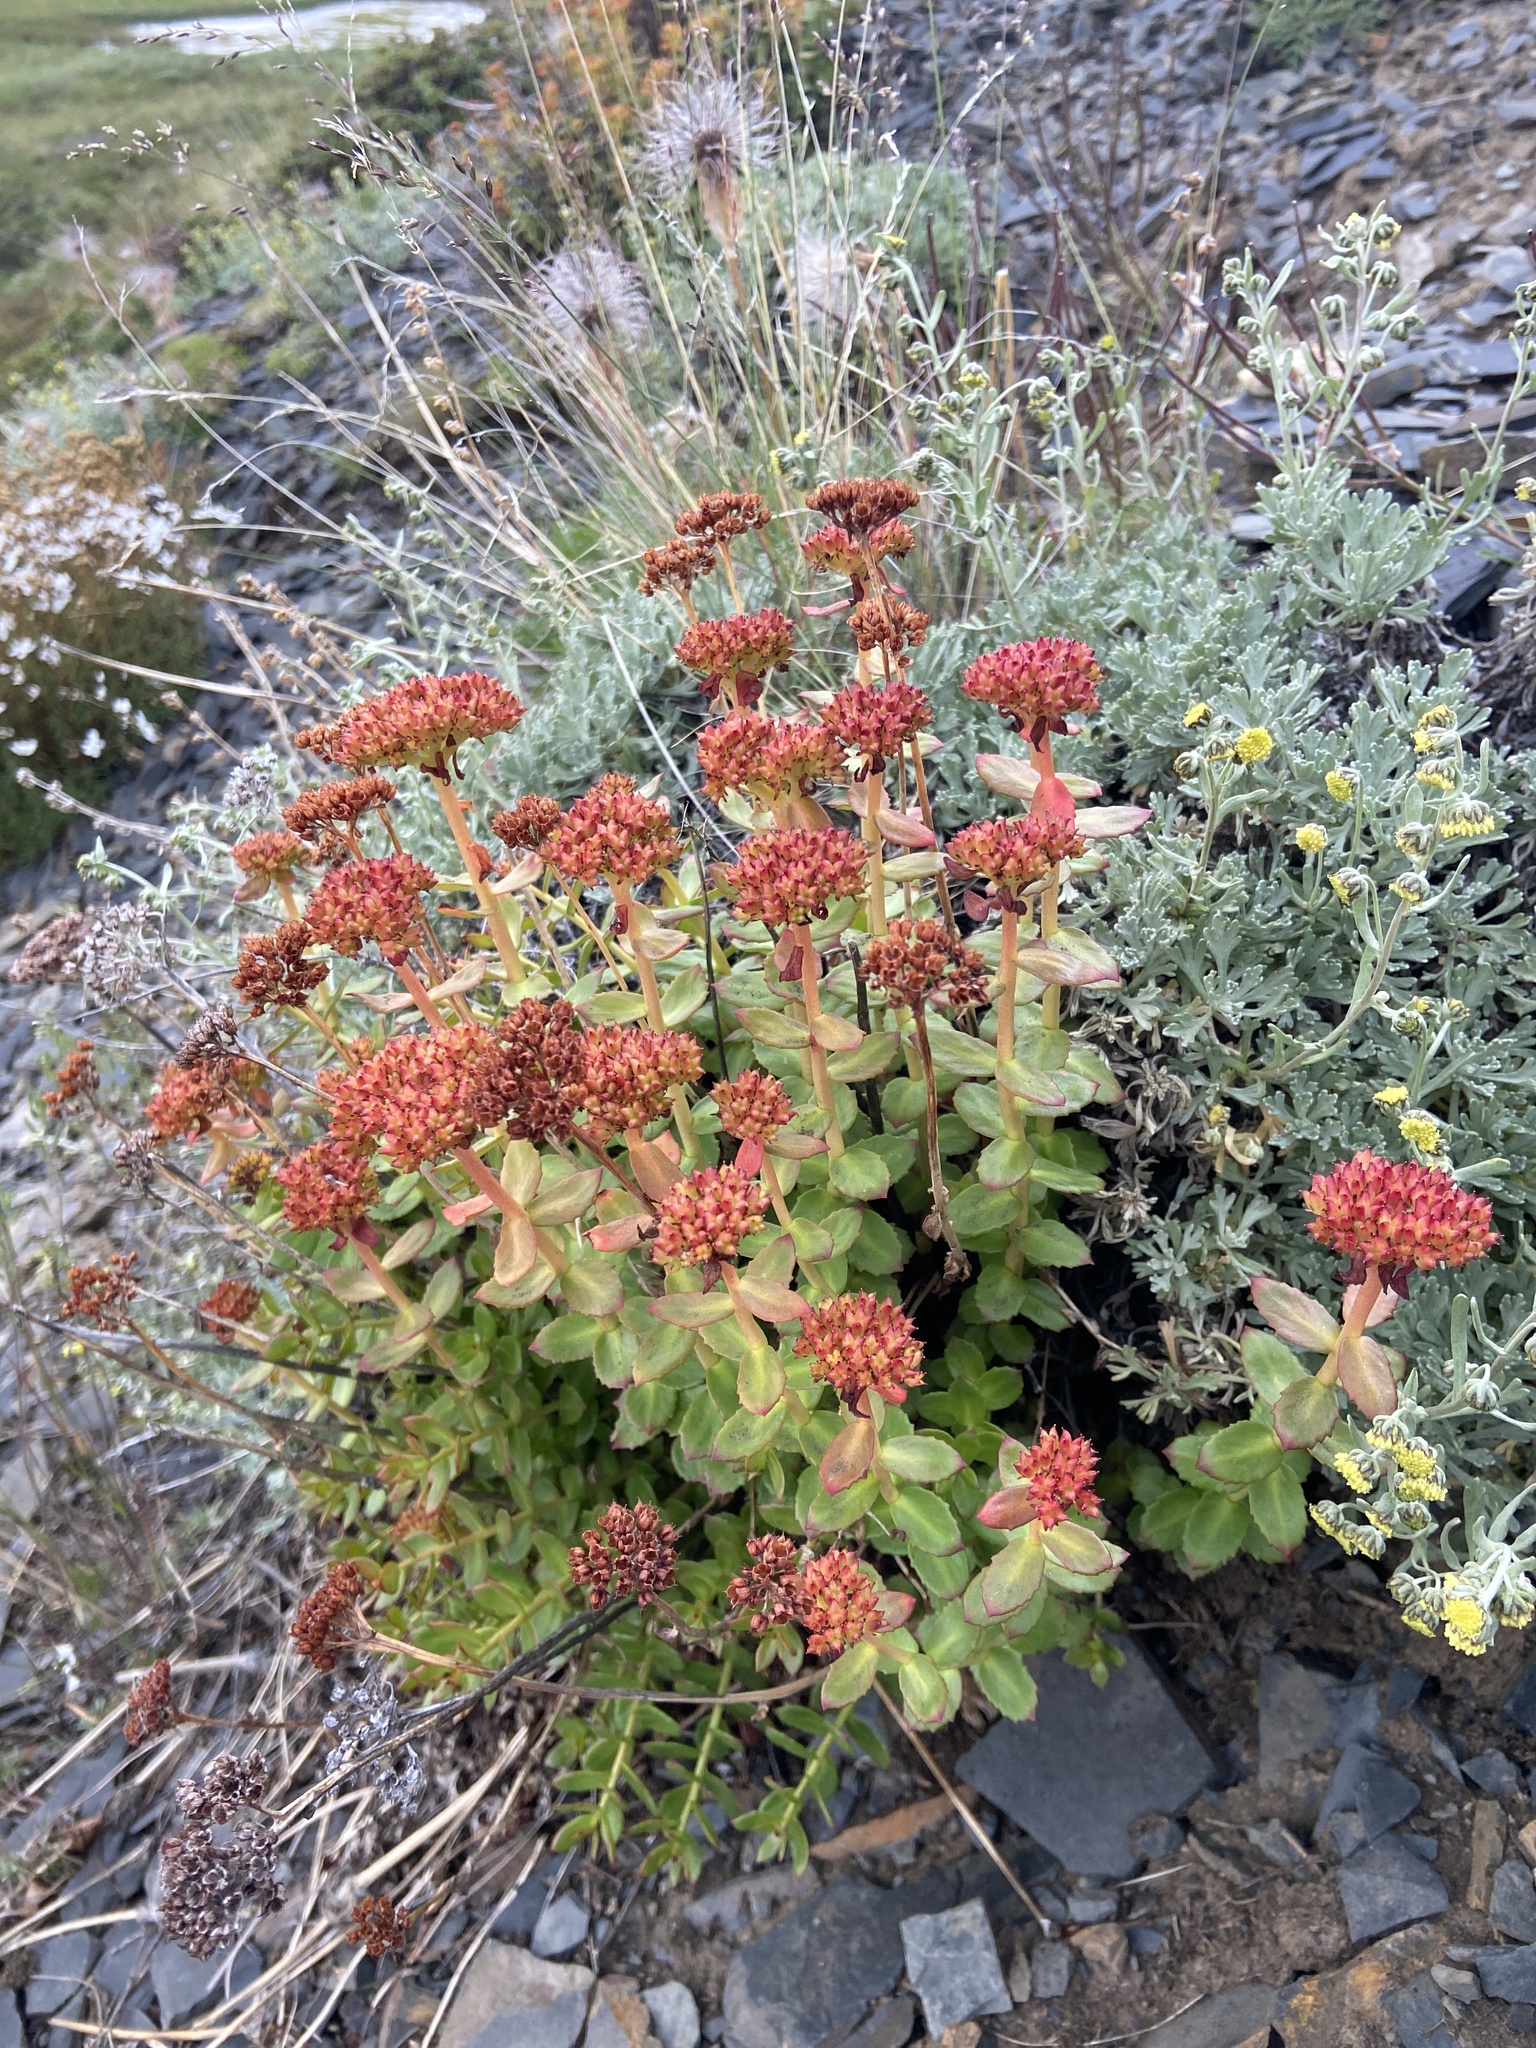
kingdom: Plantae
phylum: Tracheophyta
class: Magnoliopsida
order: Saxifragales
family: Crassulaceae
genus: Rhodiola
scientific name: Rhodiola rosea
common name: Roseroot
